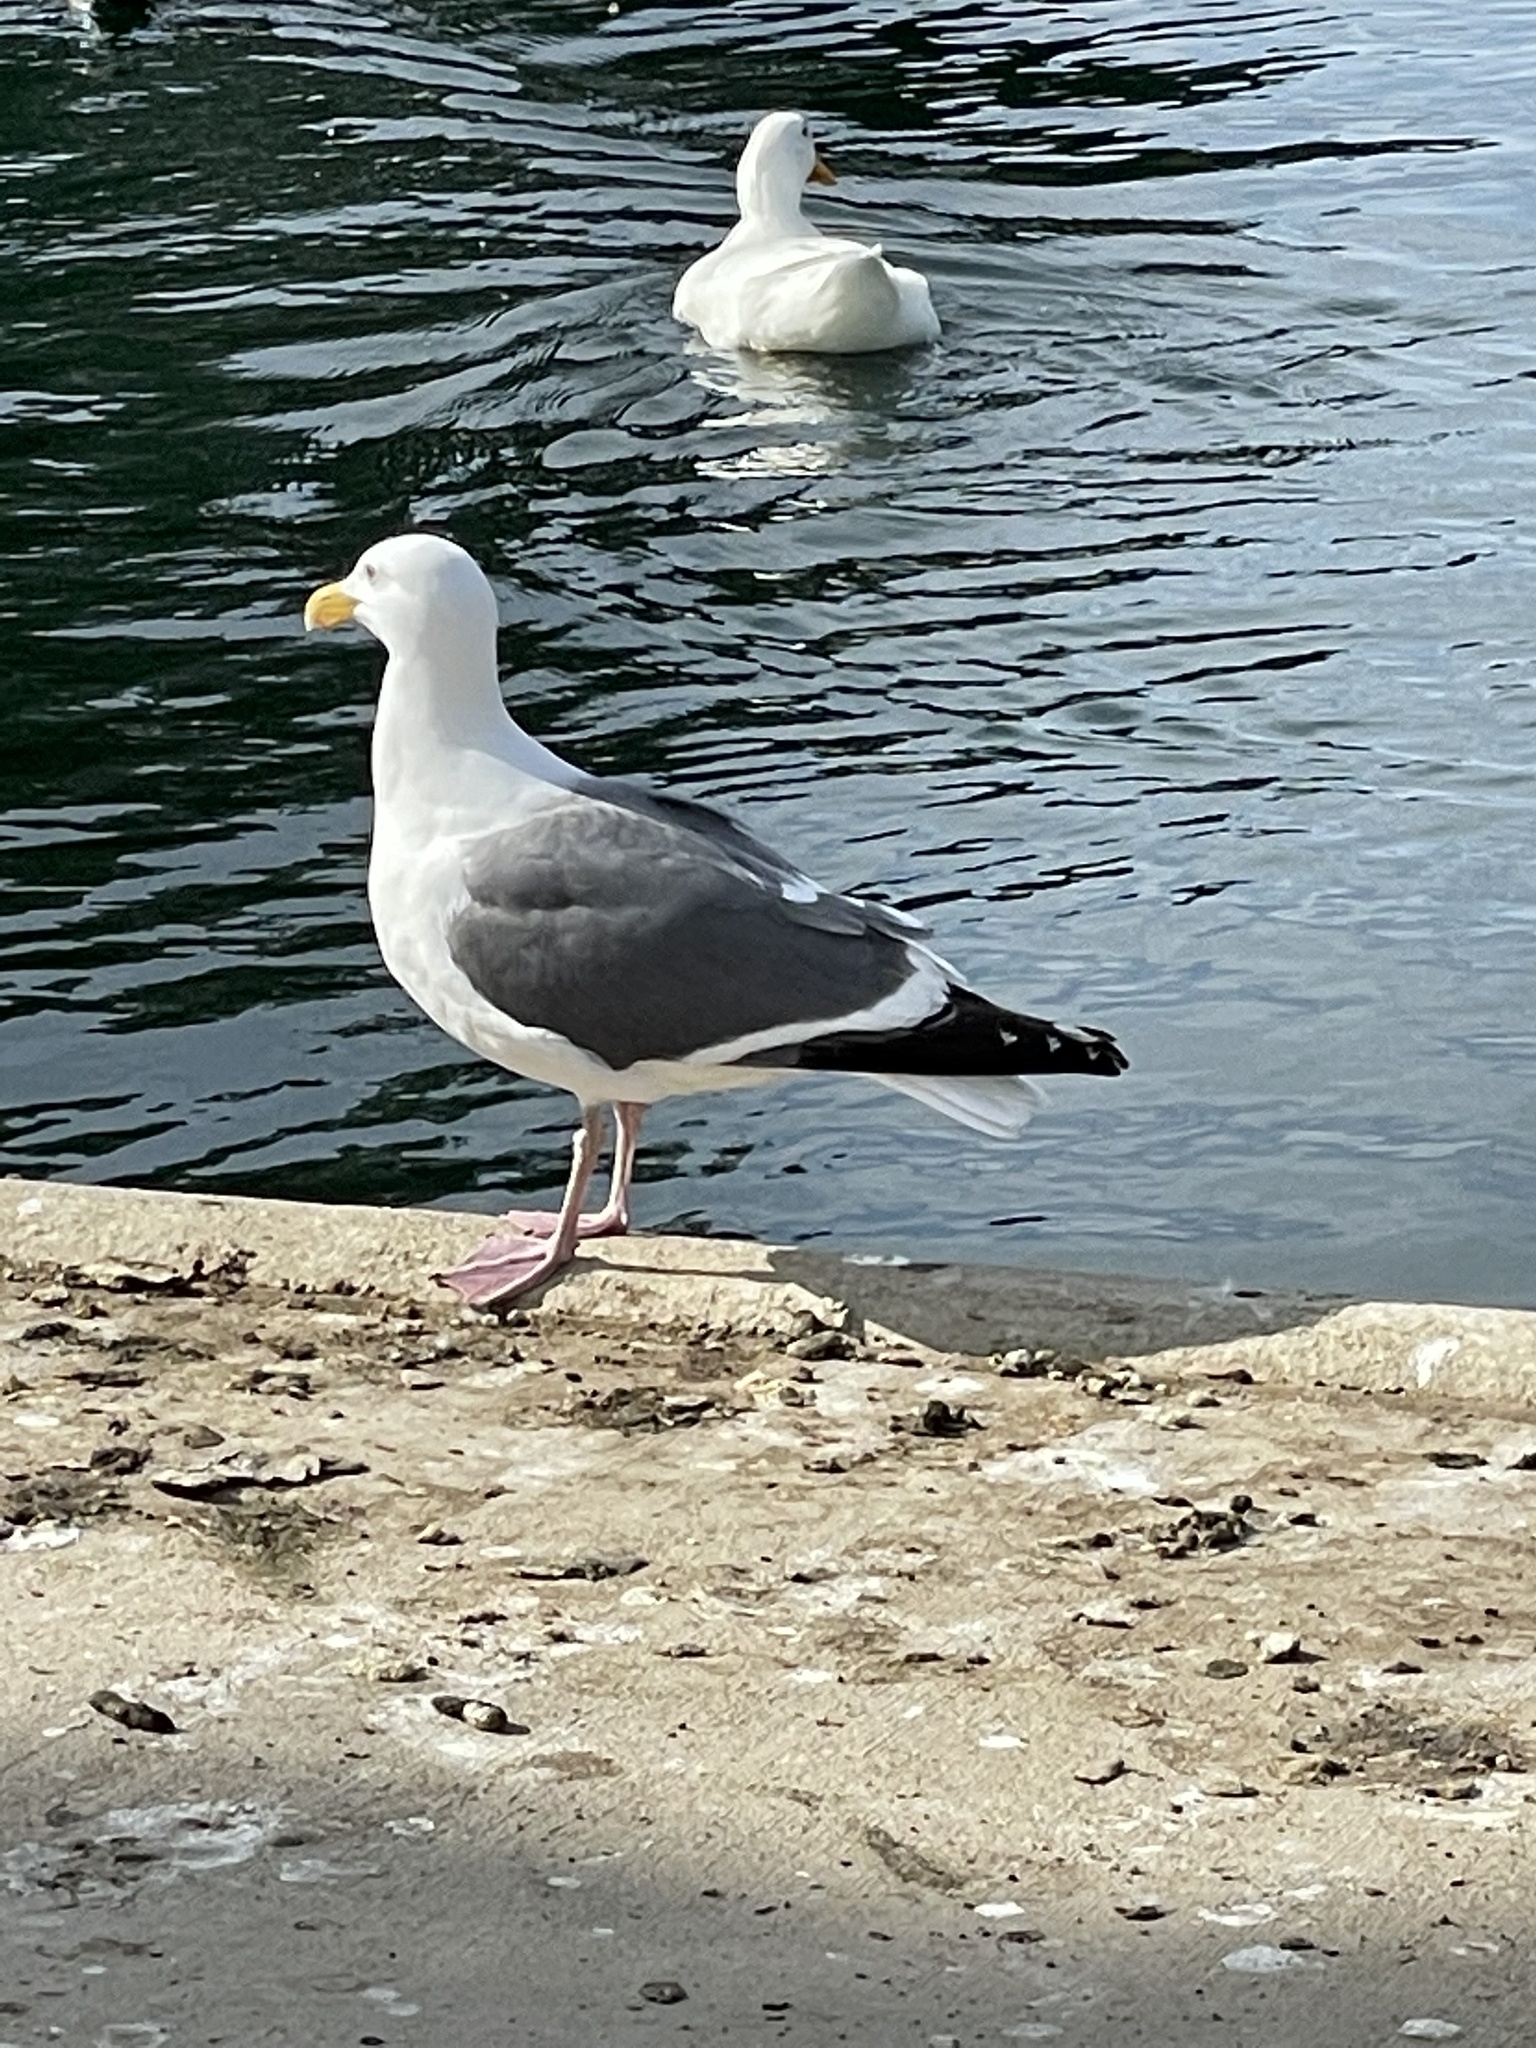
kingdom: Animalia
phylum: Chordata
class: Aves
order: Charadriiformes
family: Laridae
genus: Larus
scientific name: Larus occidentalis
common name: Western gull
